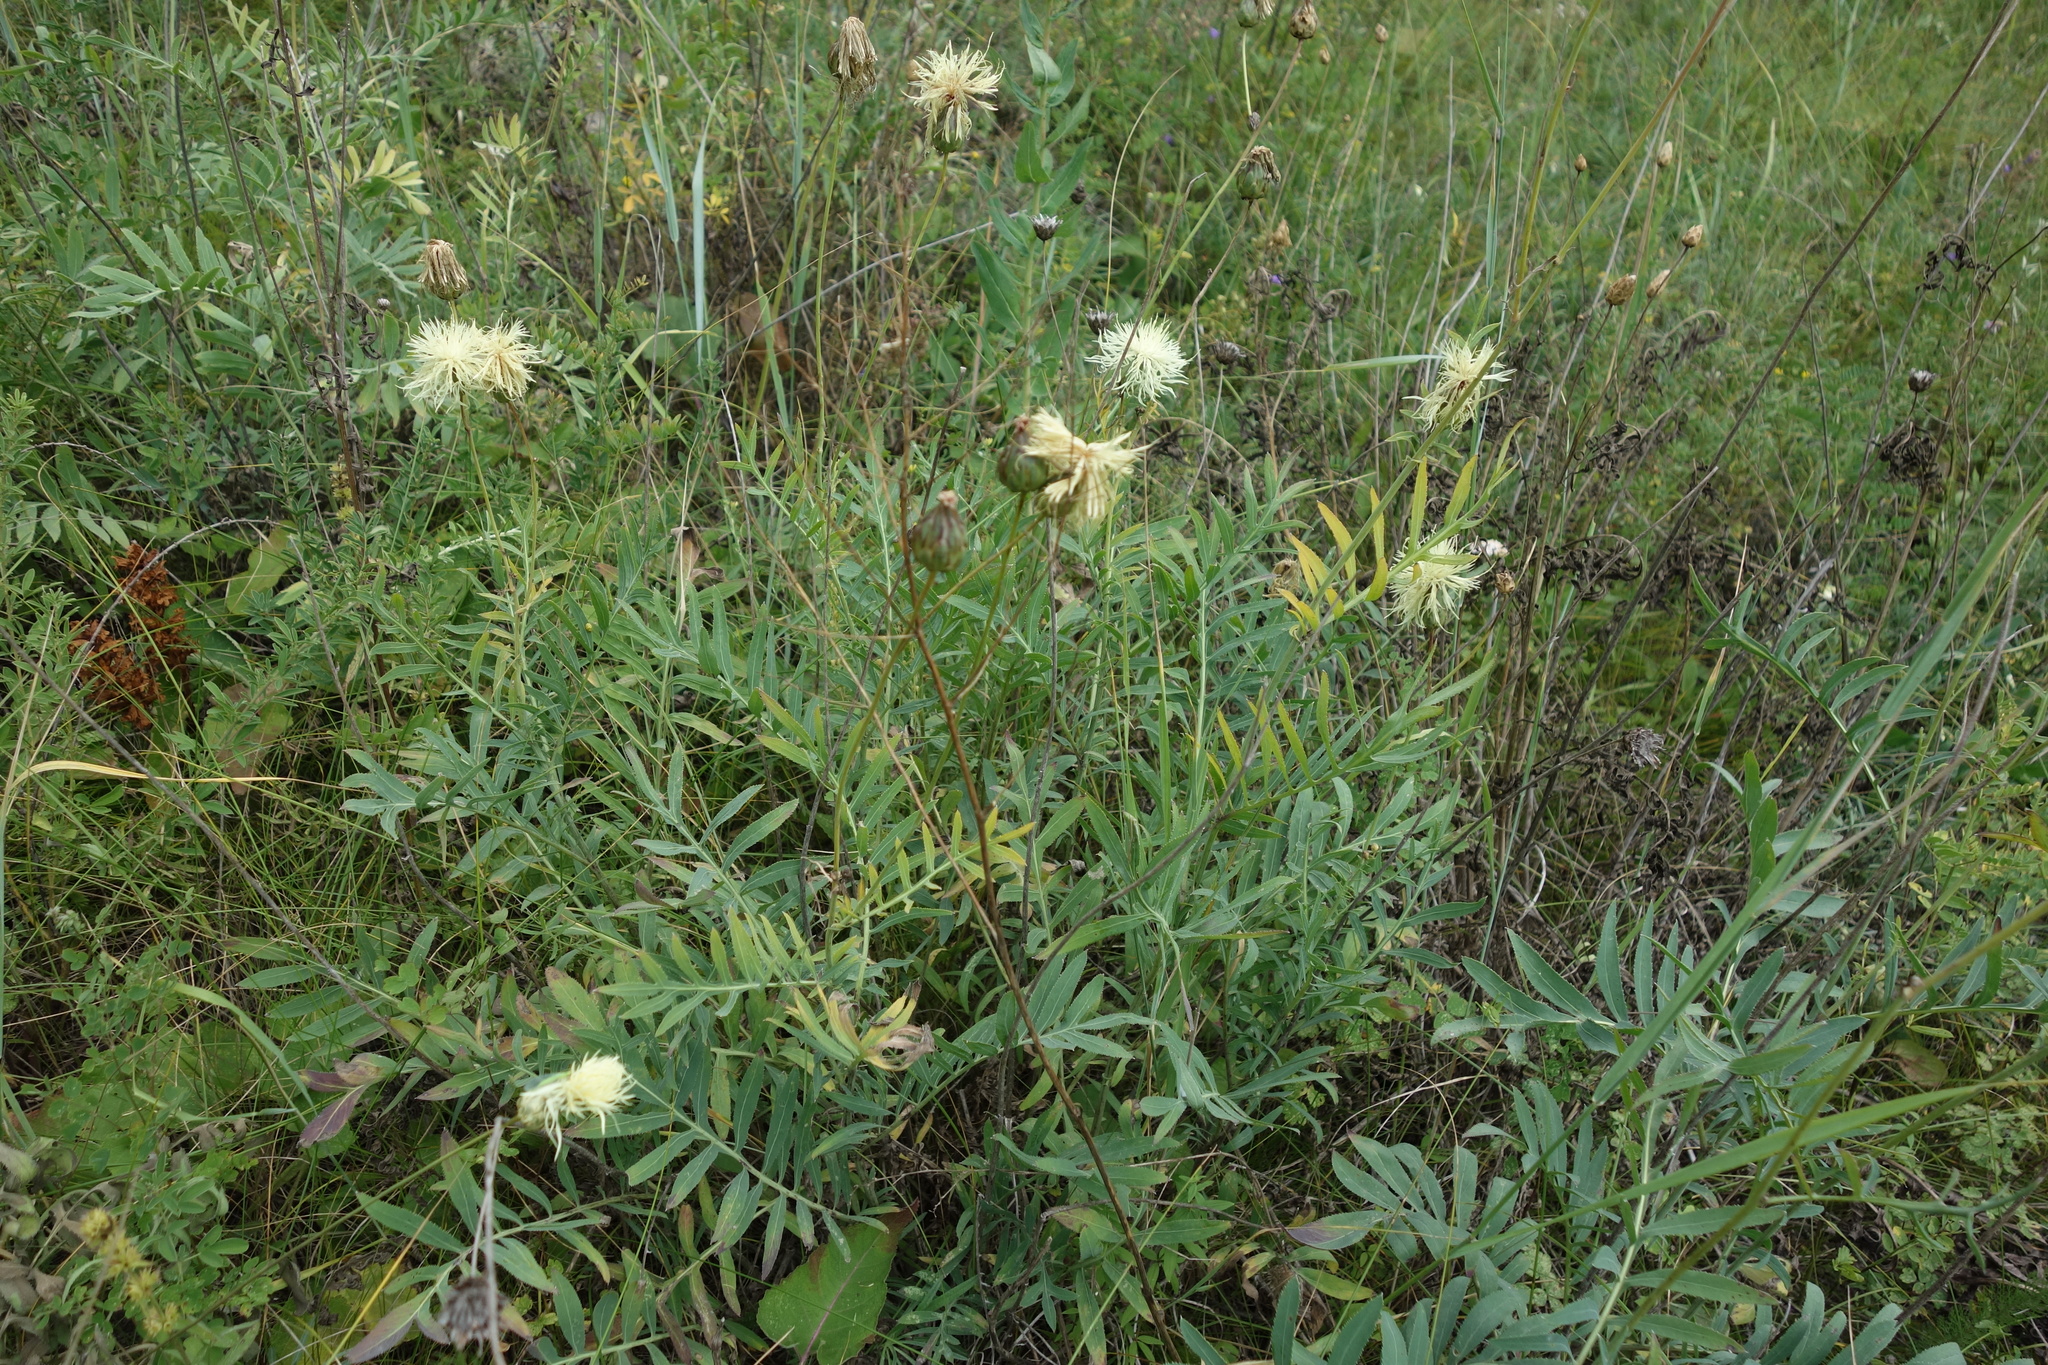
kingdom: Plantae
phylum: Tracheophyta
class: Magnoliopsida
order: Asterales
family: Asteraceae
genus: Rhaponticoides
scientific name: Rhaponticoides ruthenica
